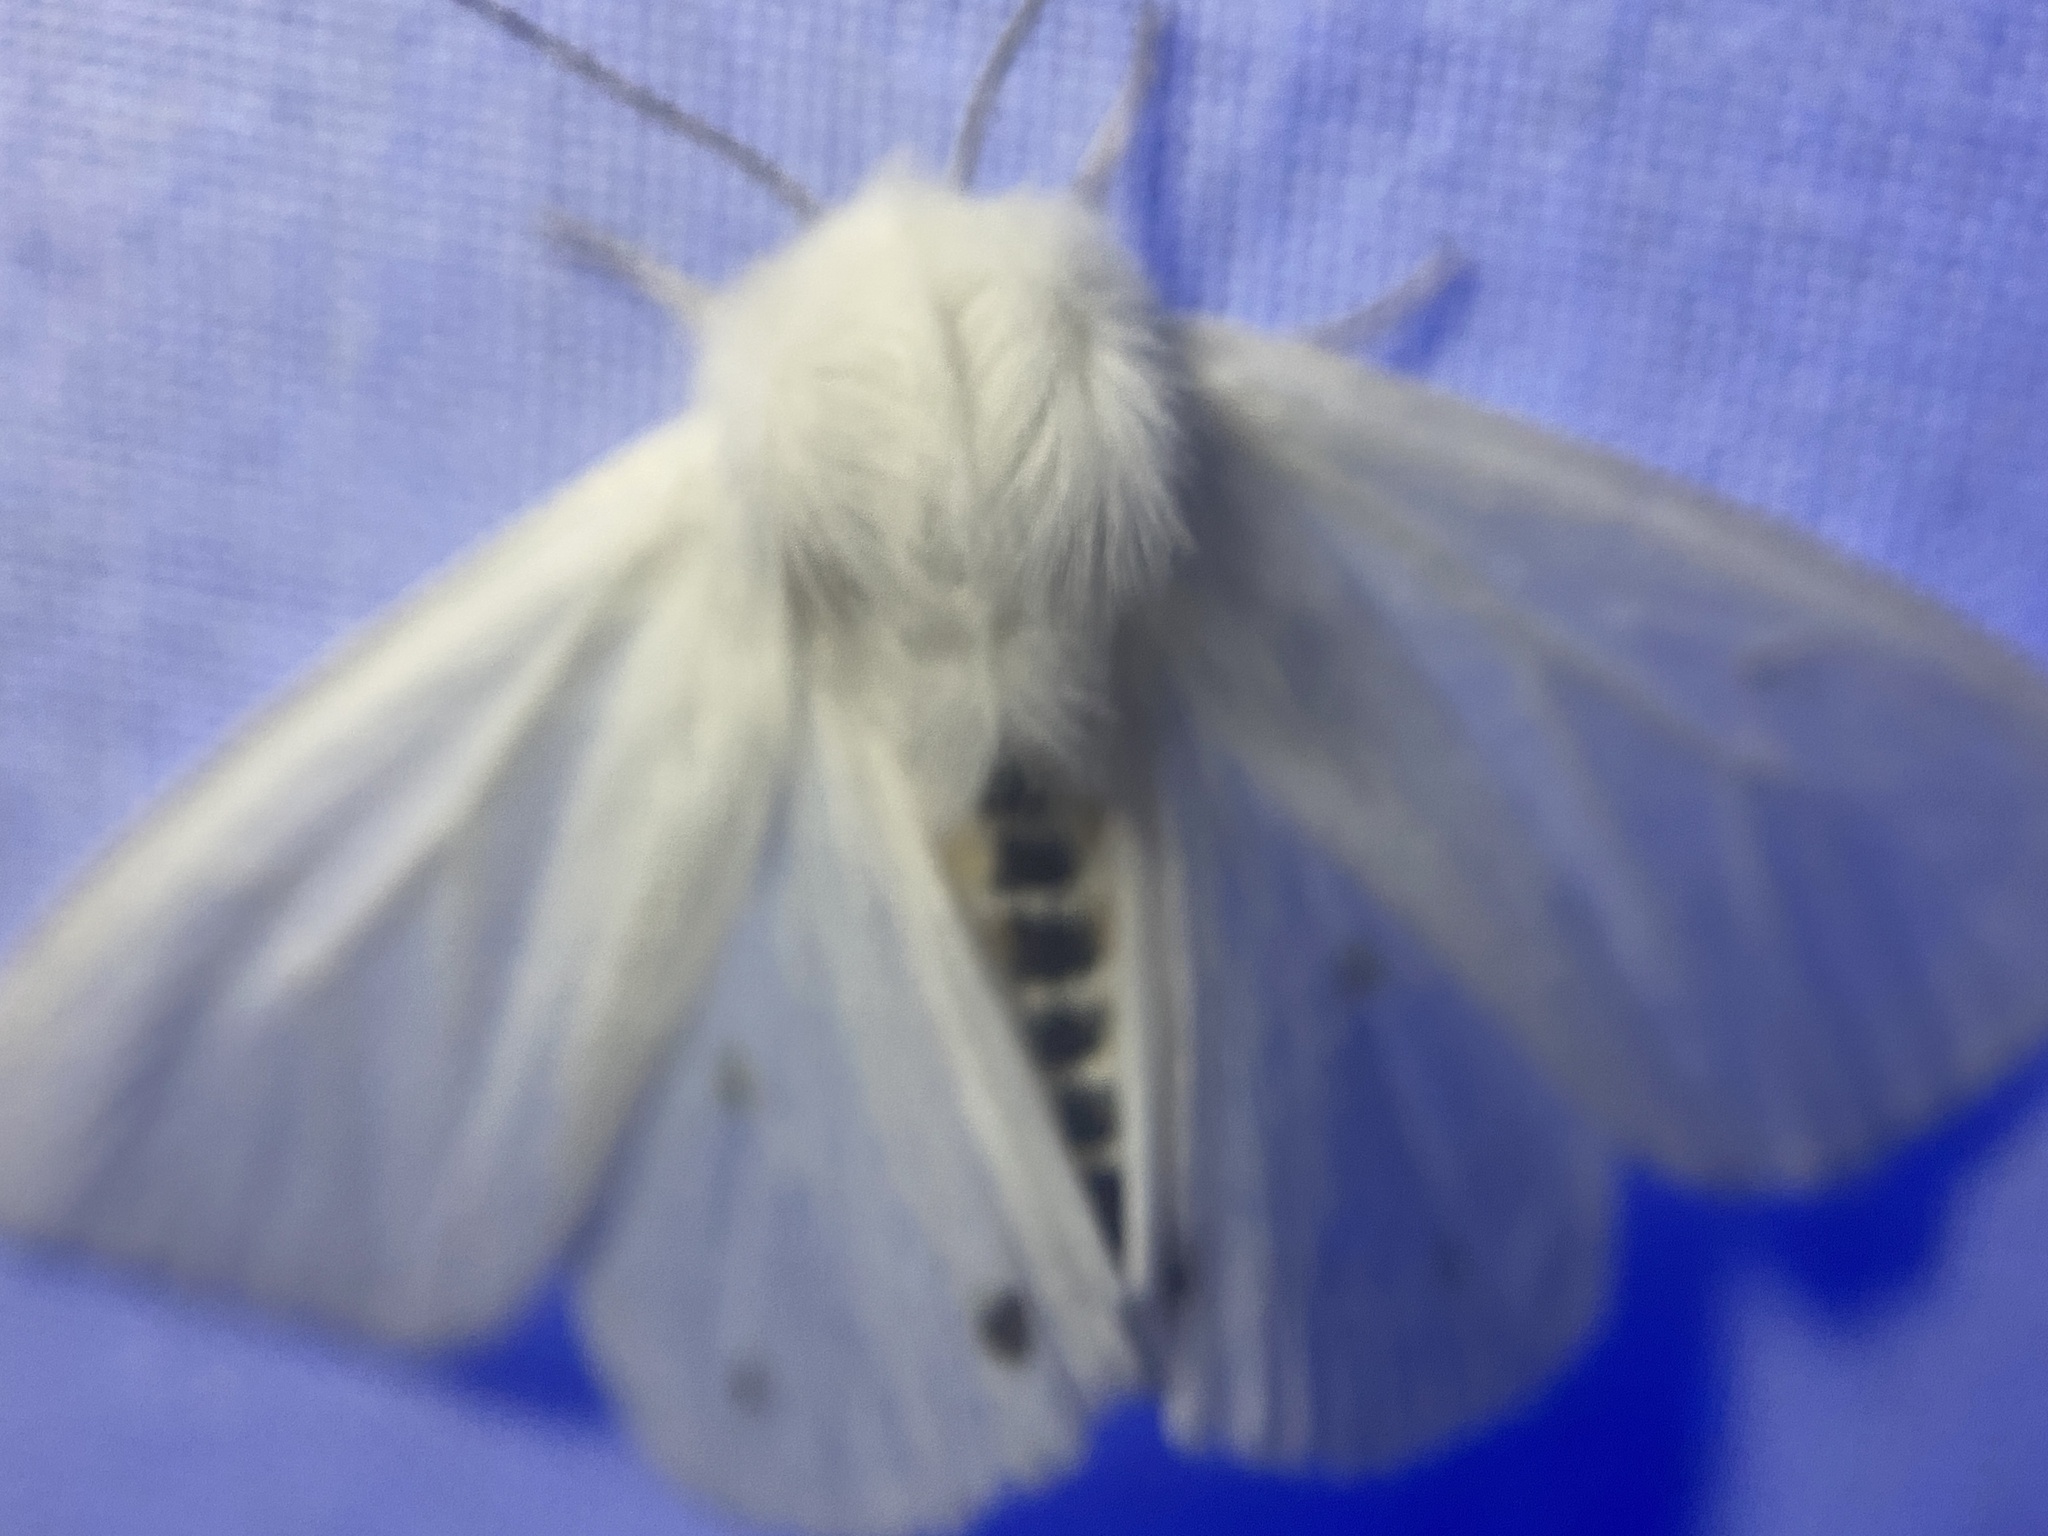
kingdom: Animalia
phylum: Arthropoda
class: Insecta
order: Lepidoptera
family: Erebidae
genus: Spilosoma
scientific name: Spilosoma virginica
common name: Virginia tiger moth
